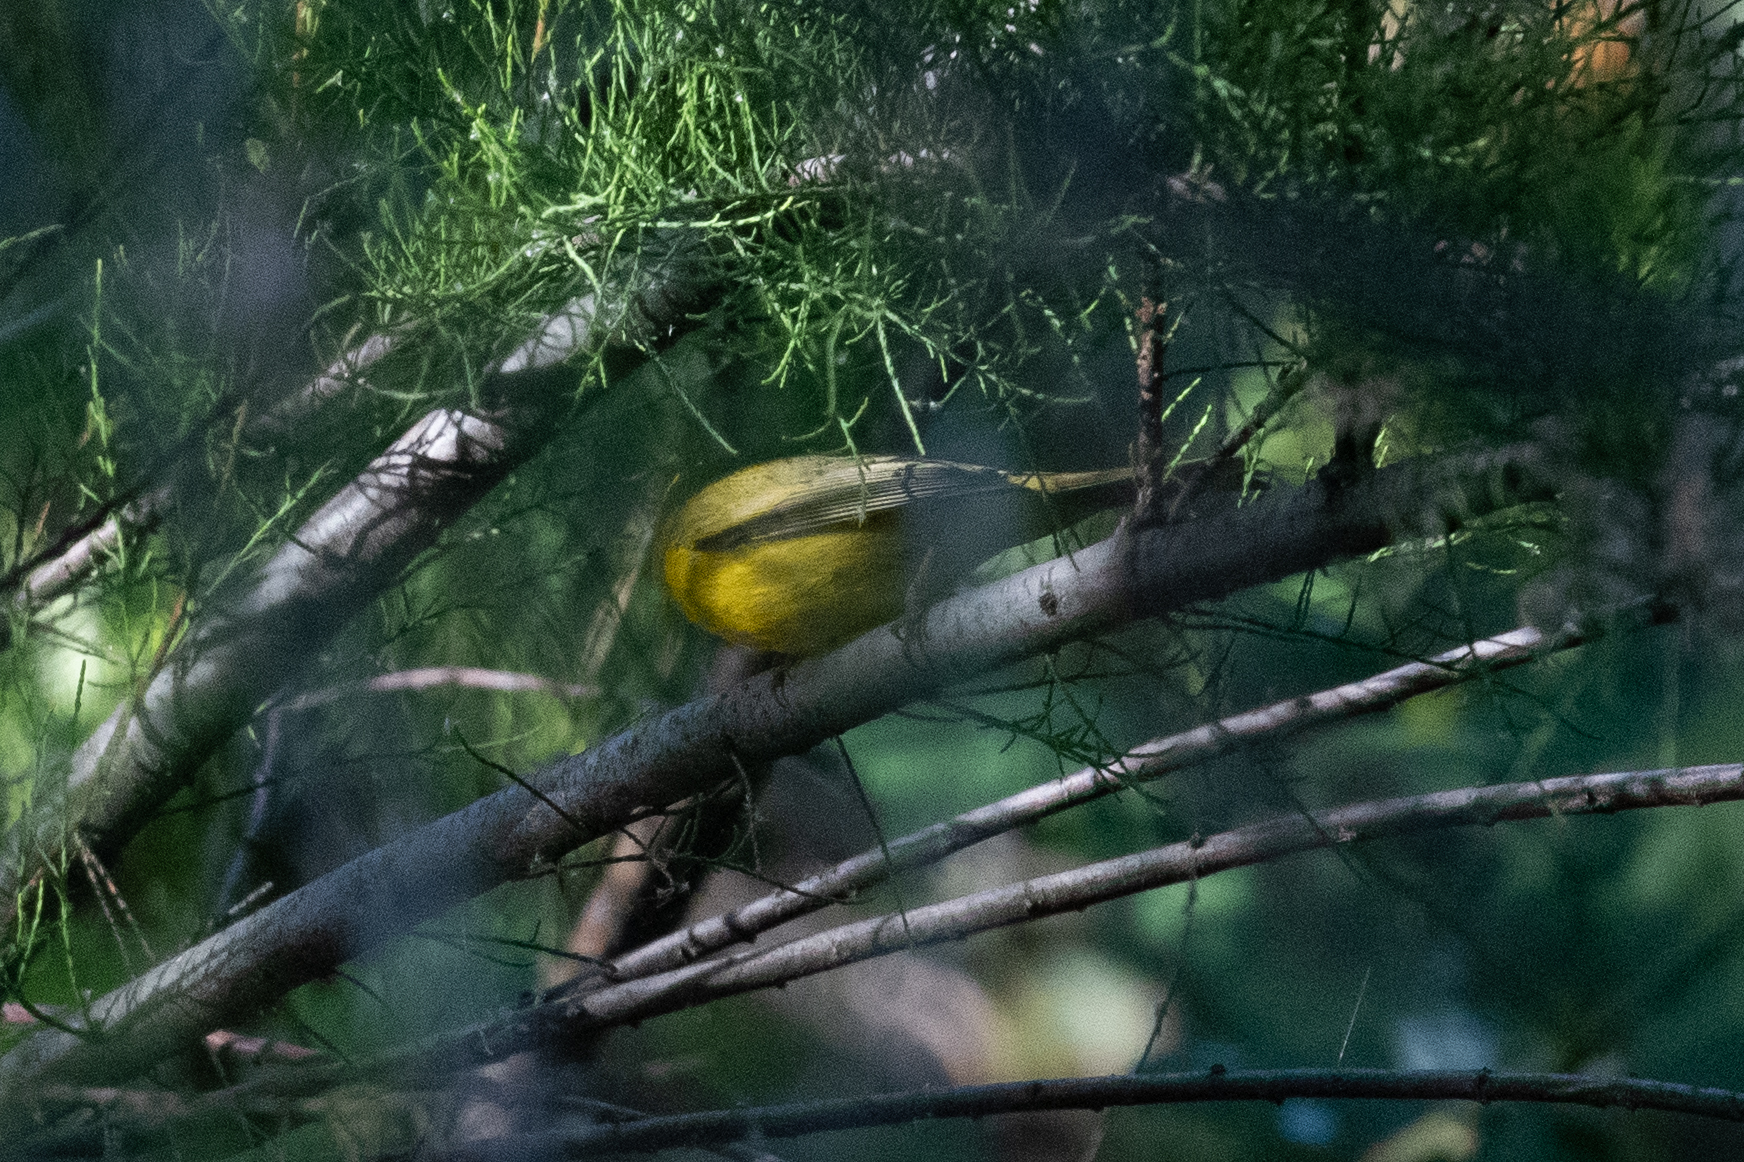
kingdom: Animalia
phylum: Chordata
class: Aves
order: Passeriformes
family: Vireonidae
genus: Vireo
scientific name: Vireo gilvus
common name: Warbling vireo
